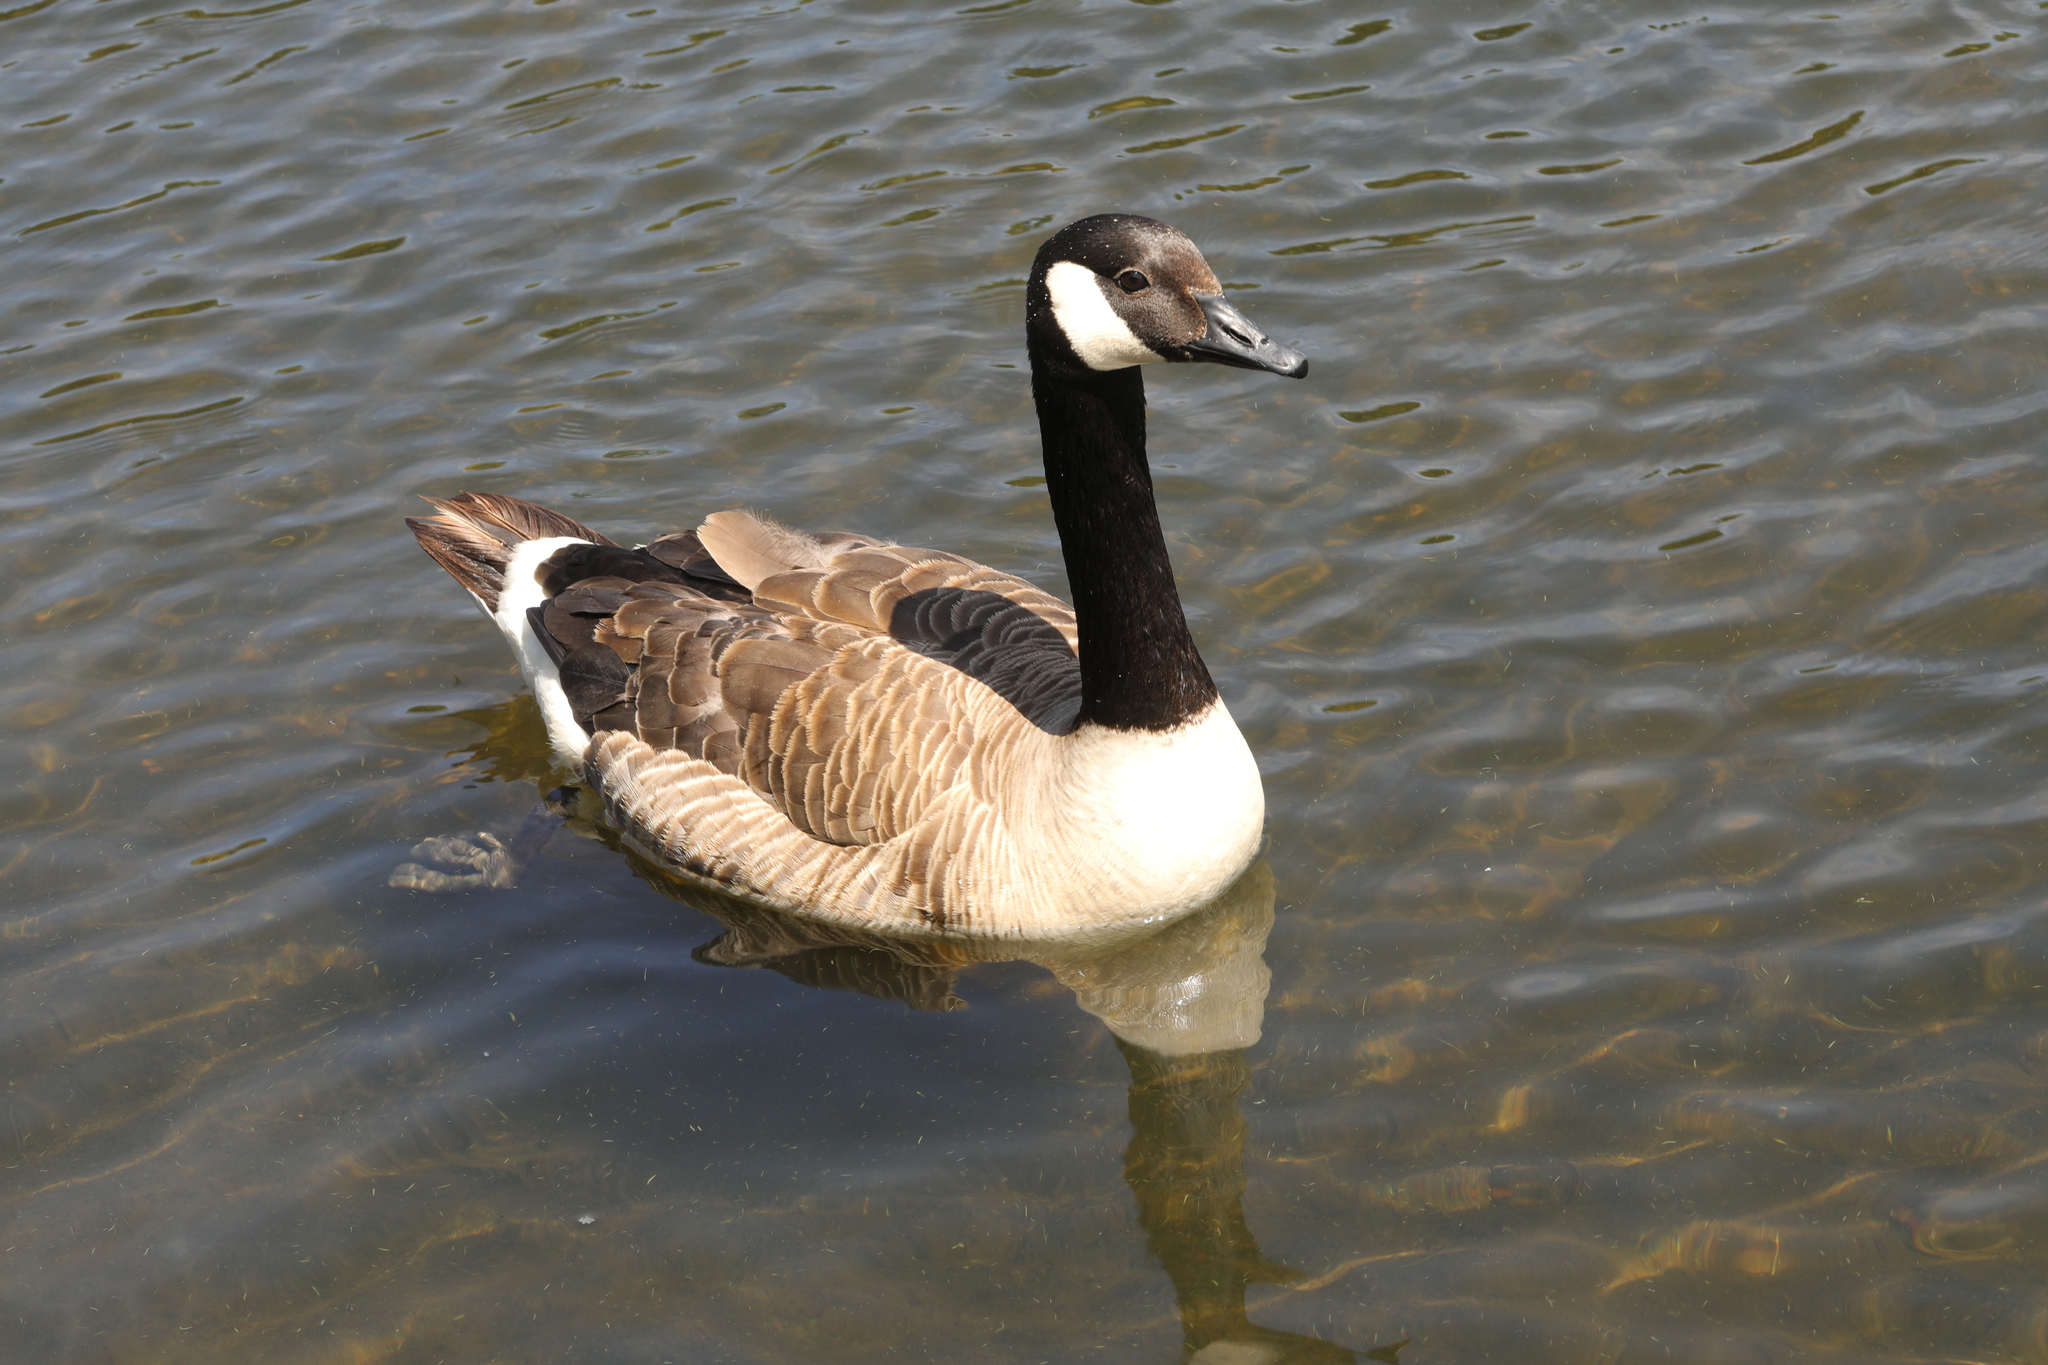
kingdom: Animalia
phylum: Chordata
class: Aves
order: Anseriformes
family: Anatidae
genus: Branta
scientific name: Branta canadensis
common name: Canada goose
